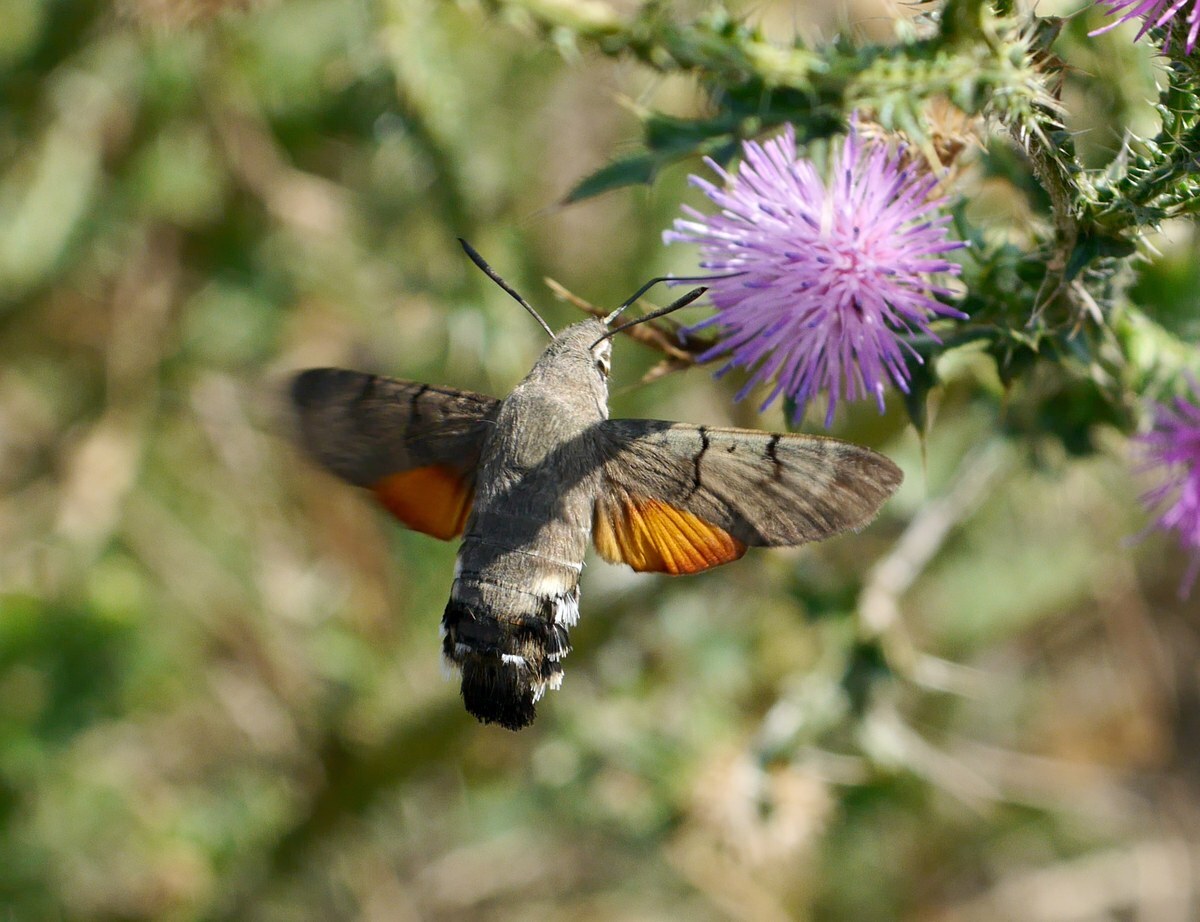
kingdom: Animalia
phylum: Arthropoda
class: Insecta
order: Lepidoptera
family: Sphingidae
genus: Macroglossum
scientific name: Macroglossum stellatarum
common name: Humming-bird hawk-moth
